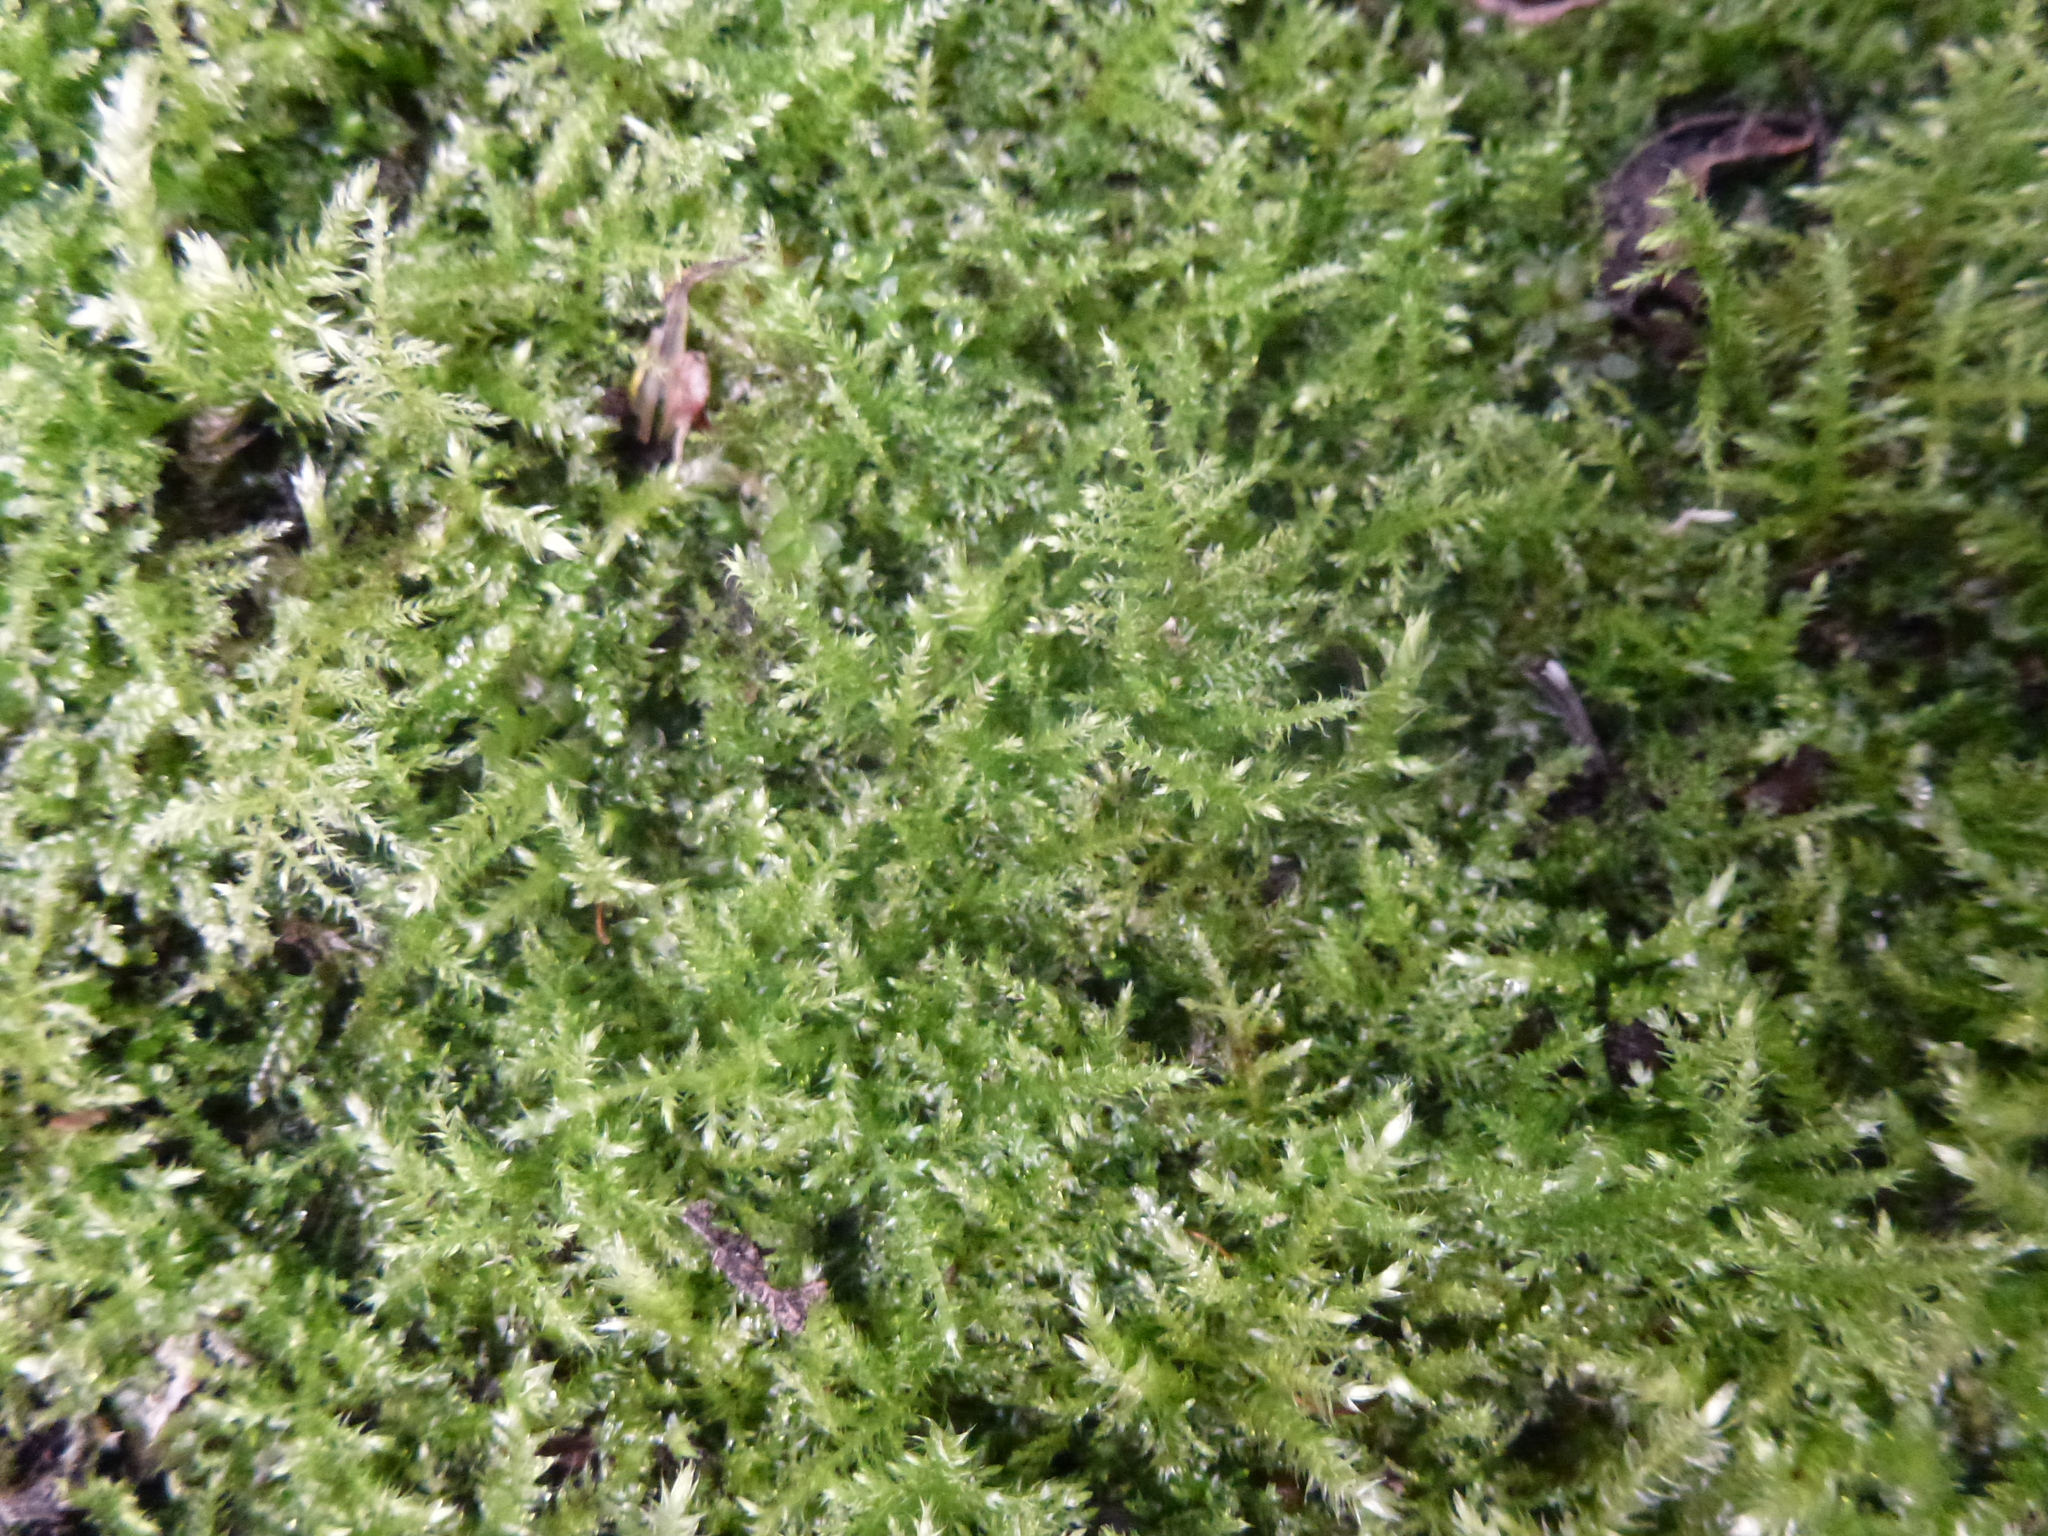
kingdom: Plantae
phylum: Bryophyta
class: Bryopsida
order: Hypnales
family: Brachytheciaceae
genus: Kindbergia
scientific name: Kindbergia praelonga
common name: Slender beaked moss
